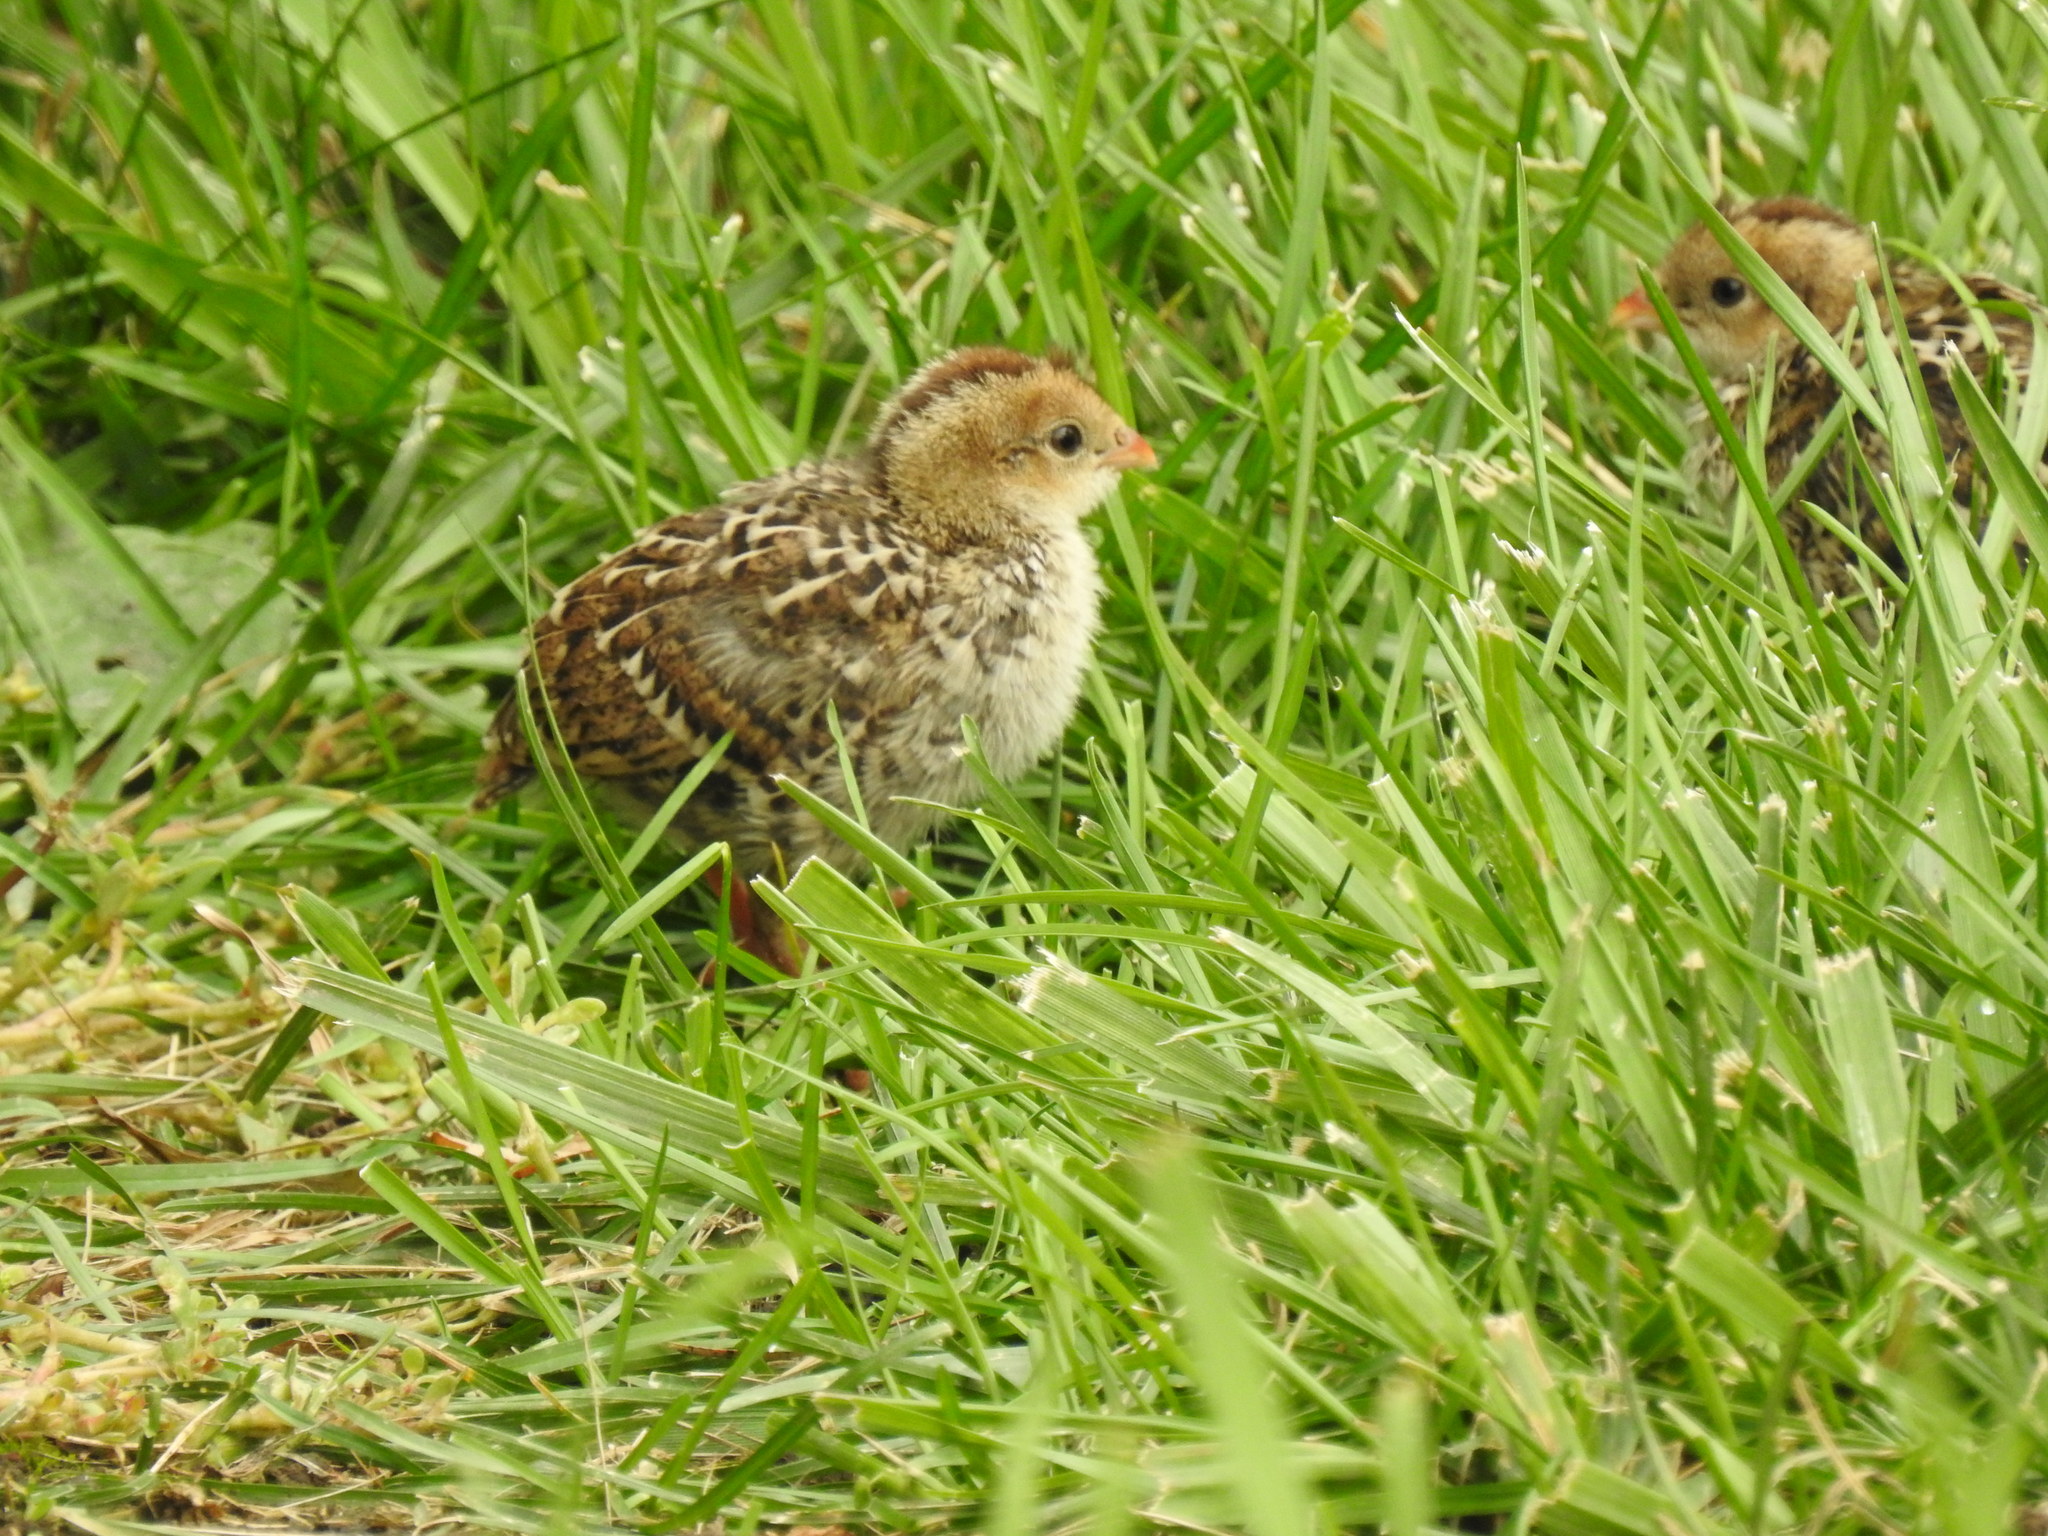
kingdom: Animalia
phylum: Chordata
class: Aves
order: Galliformes
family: Odontophoridae
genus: Callipepla
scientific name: Callipepla californica
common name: California quail
